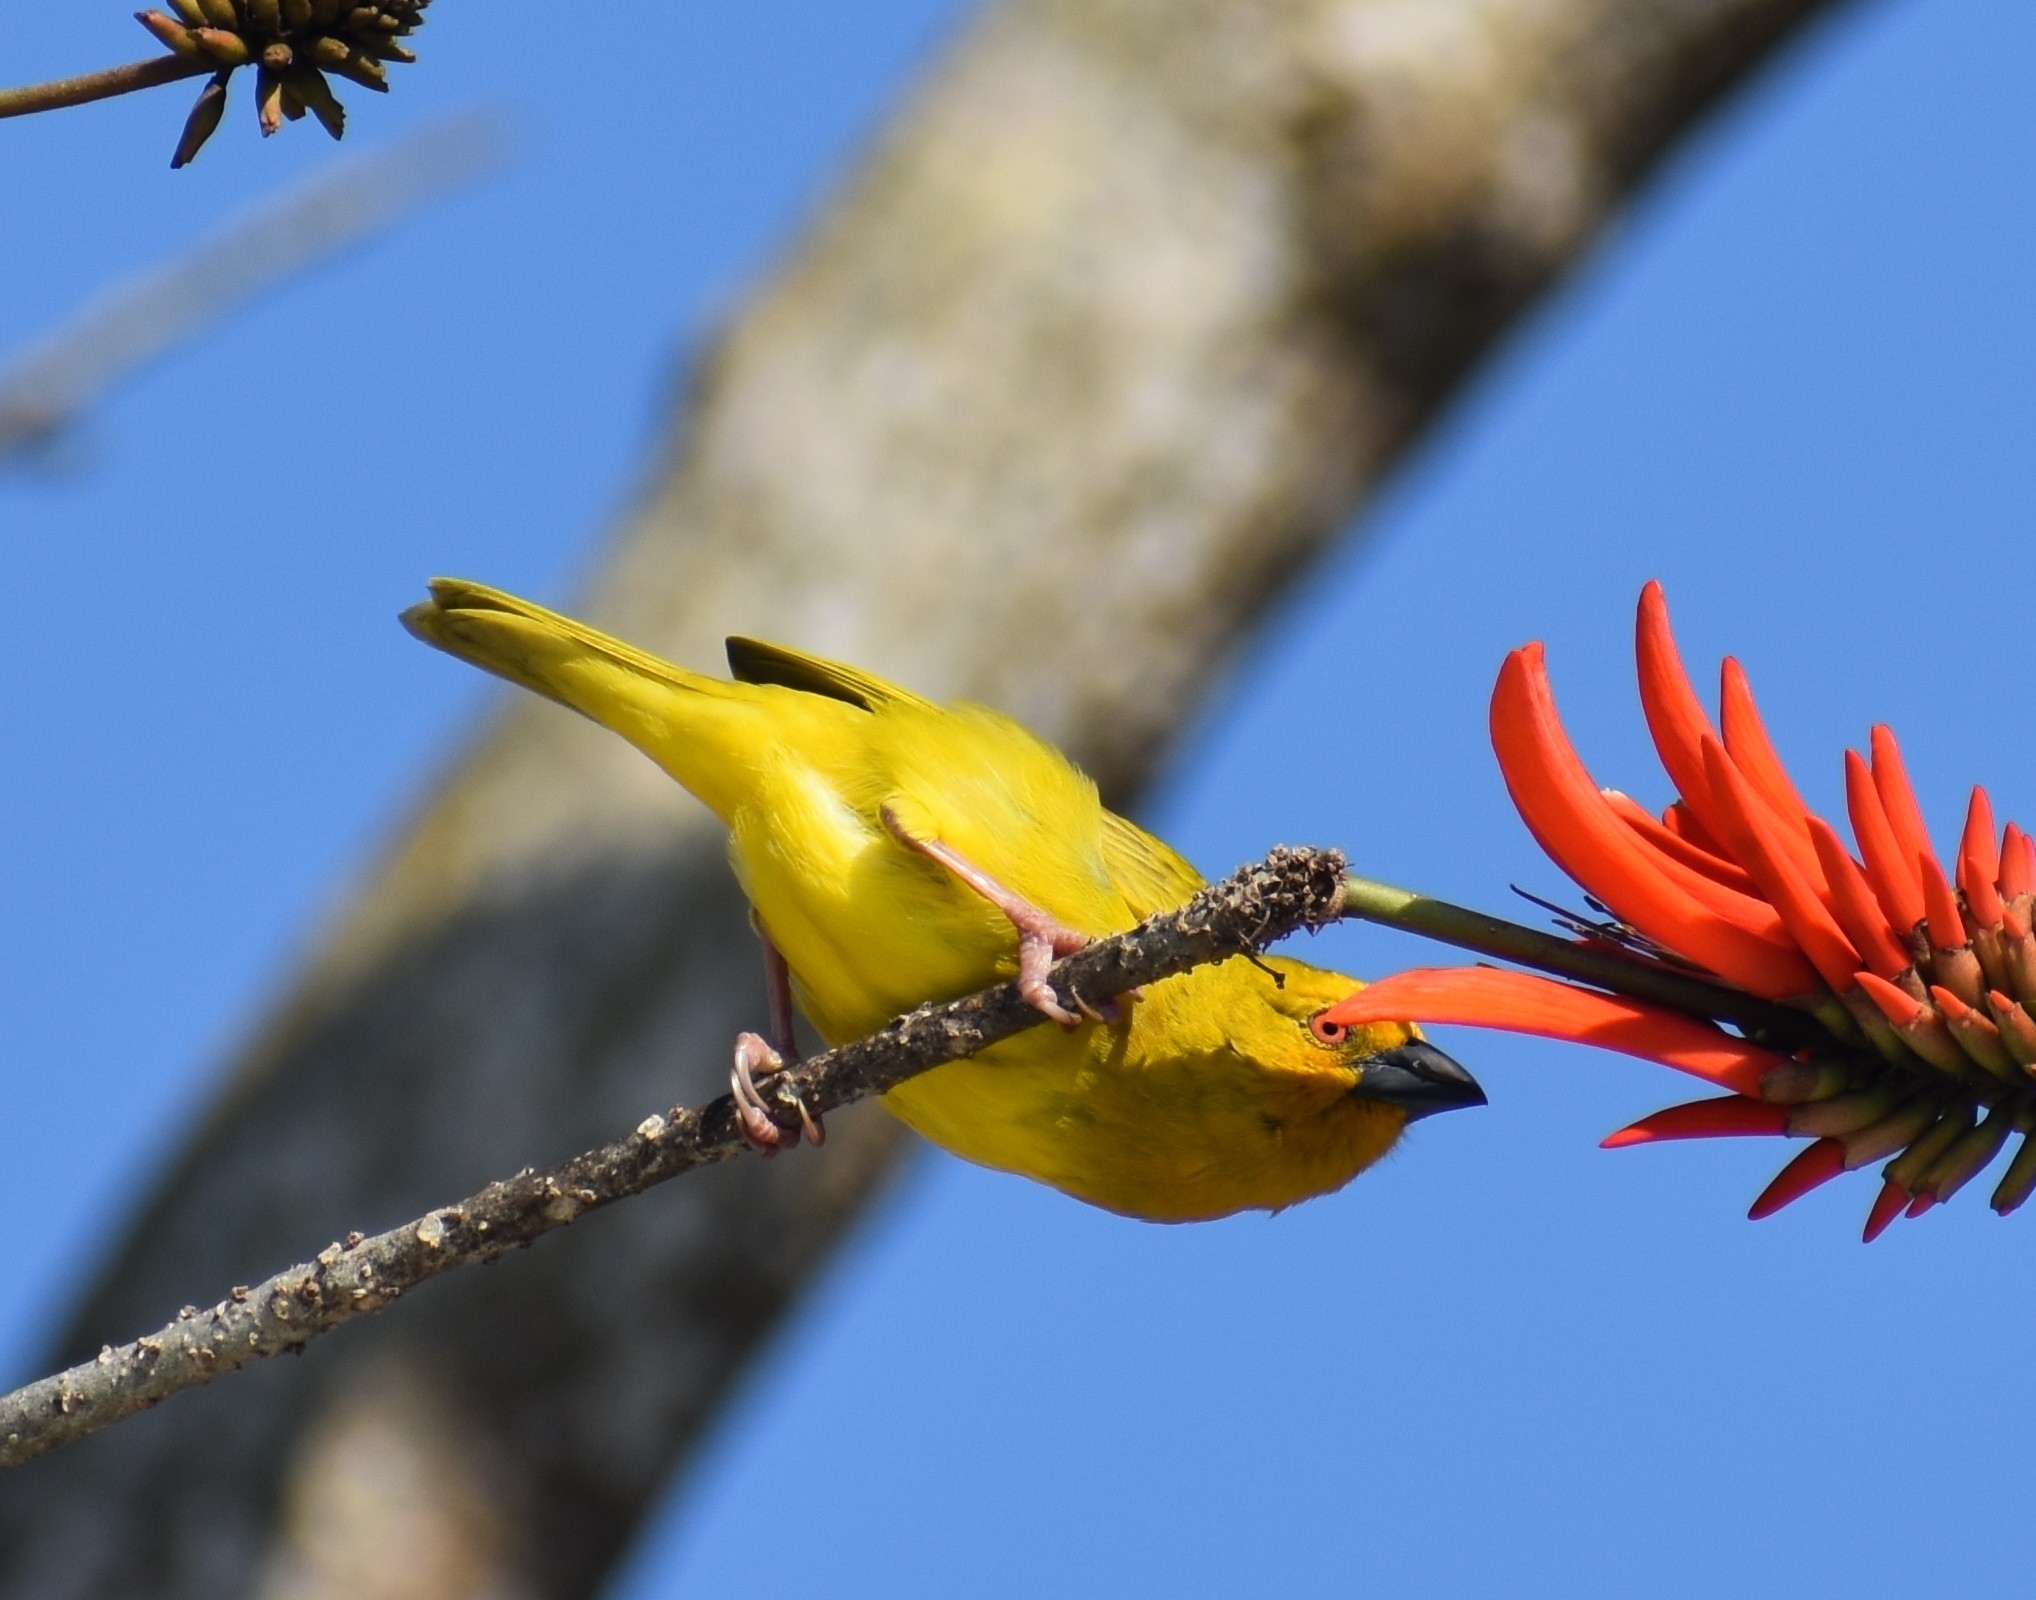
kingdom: Animalia
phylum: Chordata
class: Aves
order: Passeriformes
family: Ploceidae
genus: Ploceus
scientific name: Ploceus subaureus
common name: Yellow weaver
